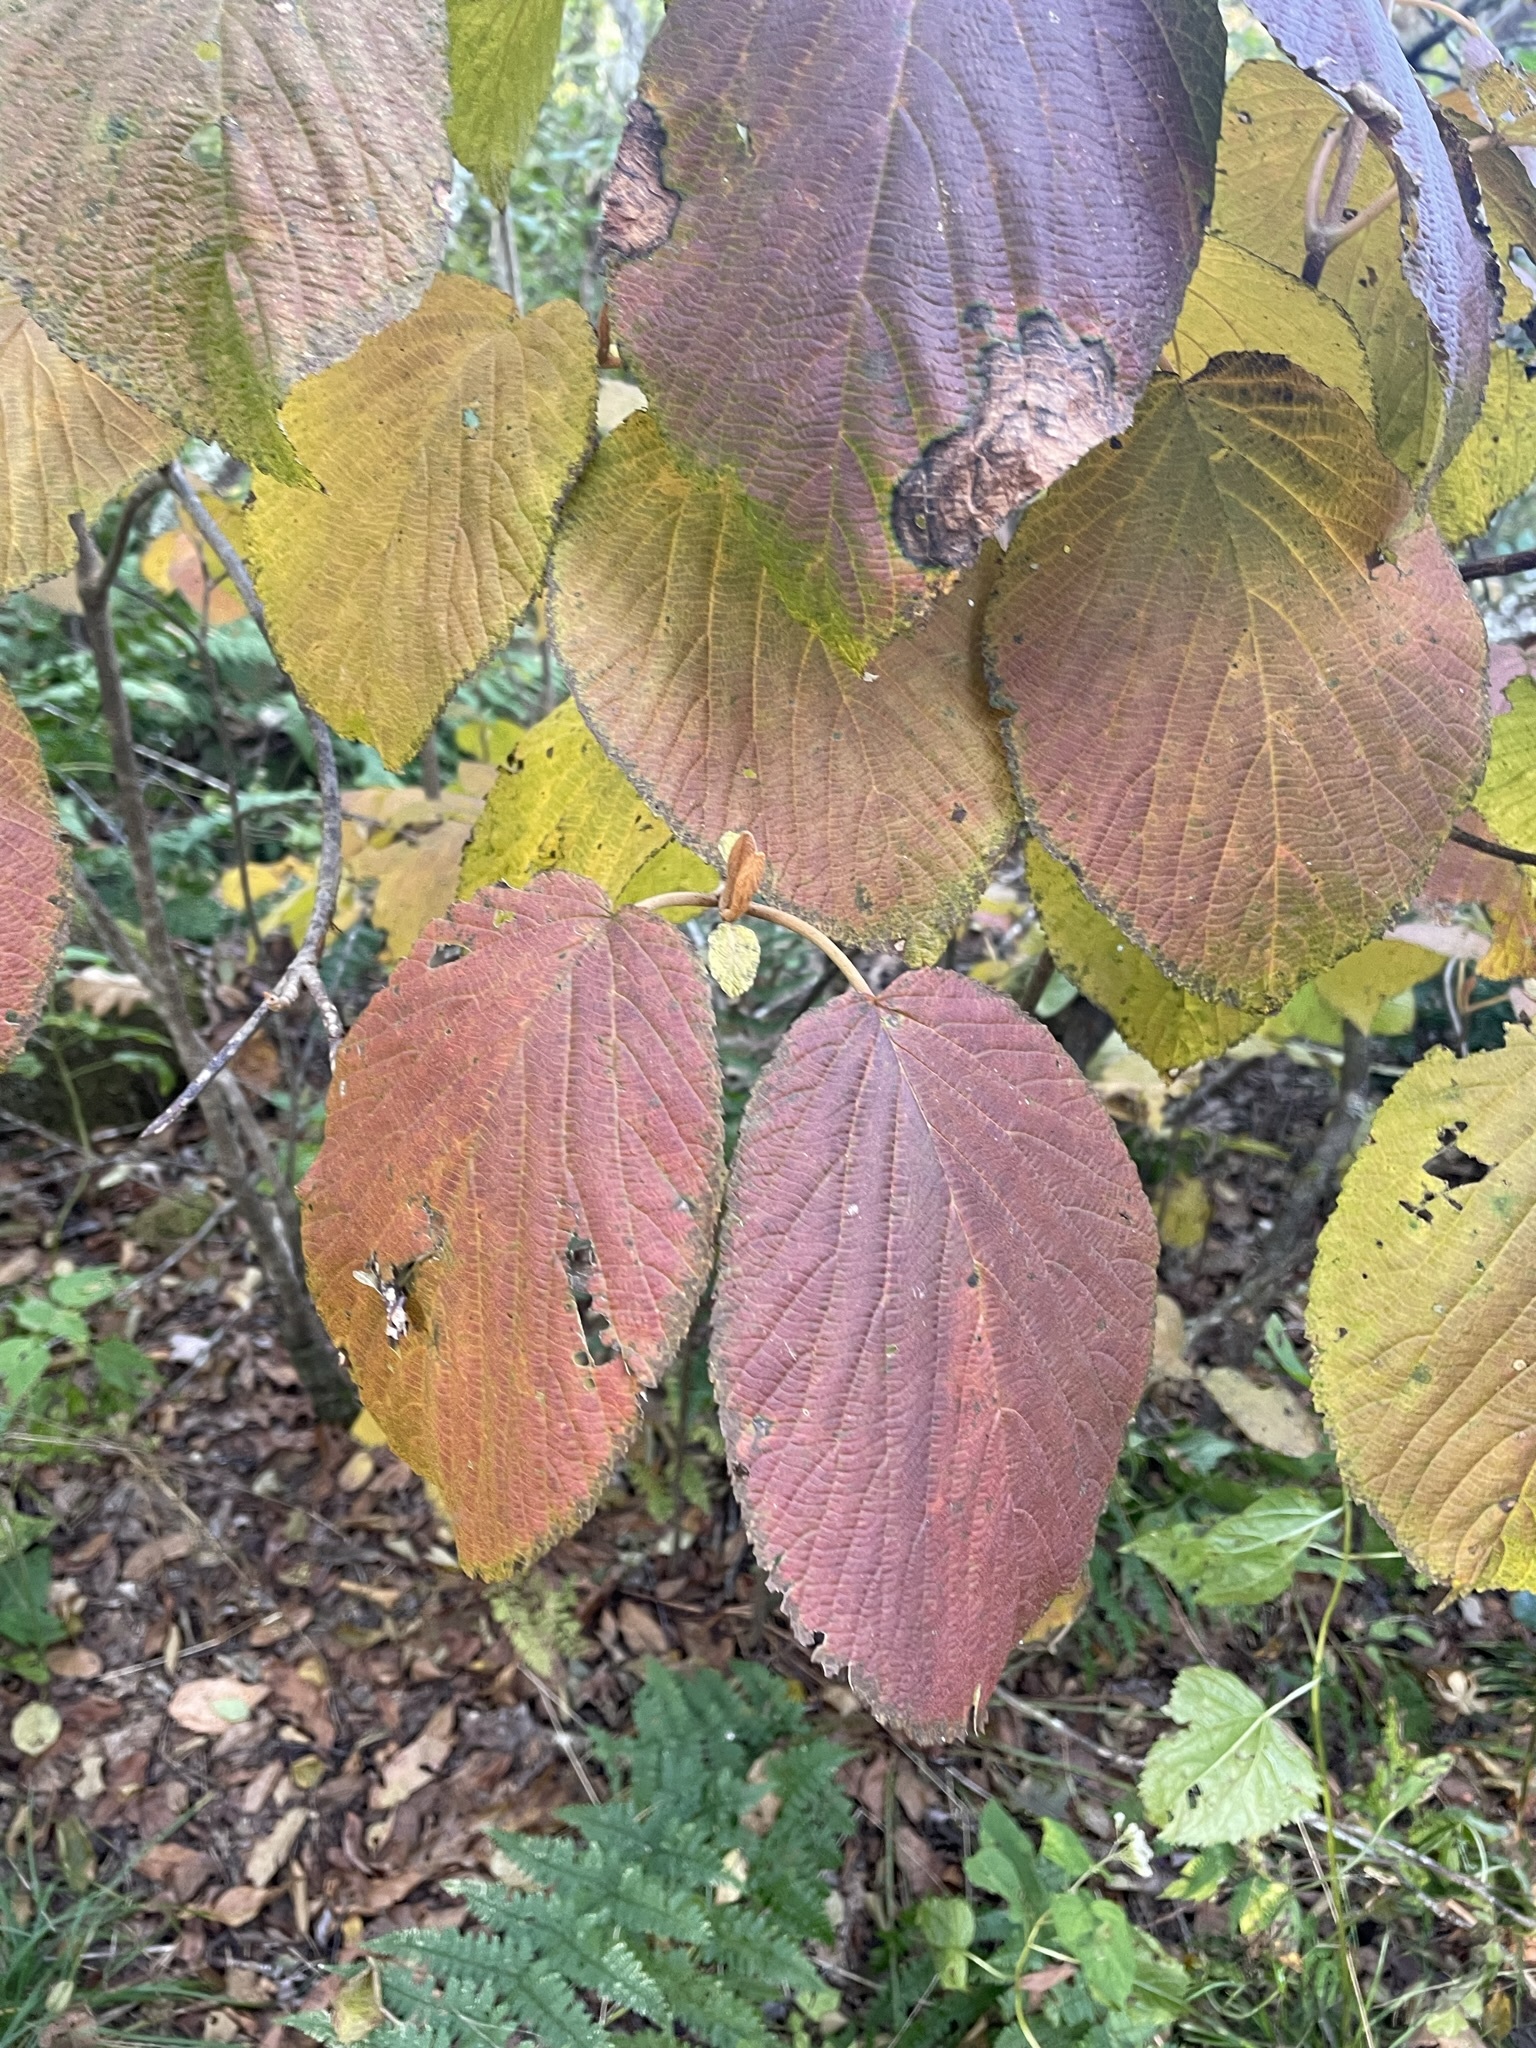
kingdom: Plantae
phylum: Tracheophyta
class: Magnoliopsida
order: Dipsacales
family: Viburnaceae
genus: Viburnum
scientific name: Viburnum lantanoides
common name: Hobblebush
